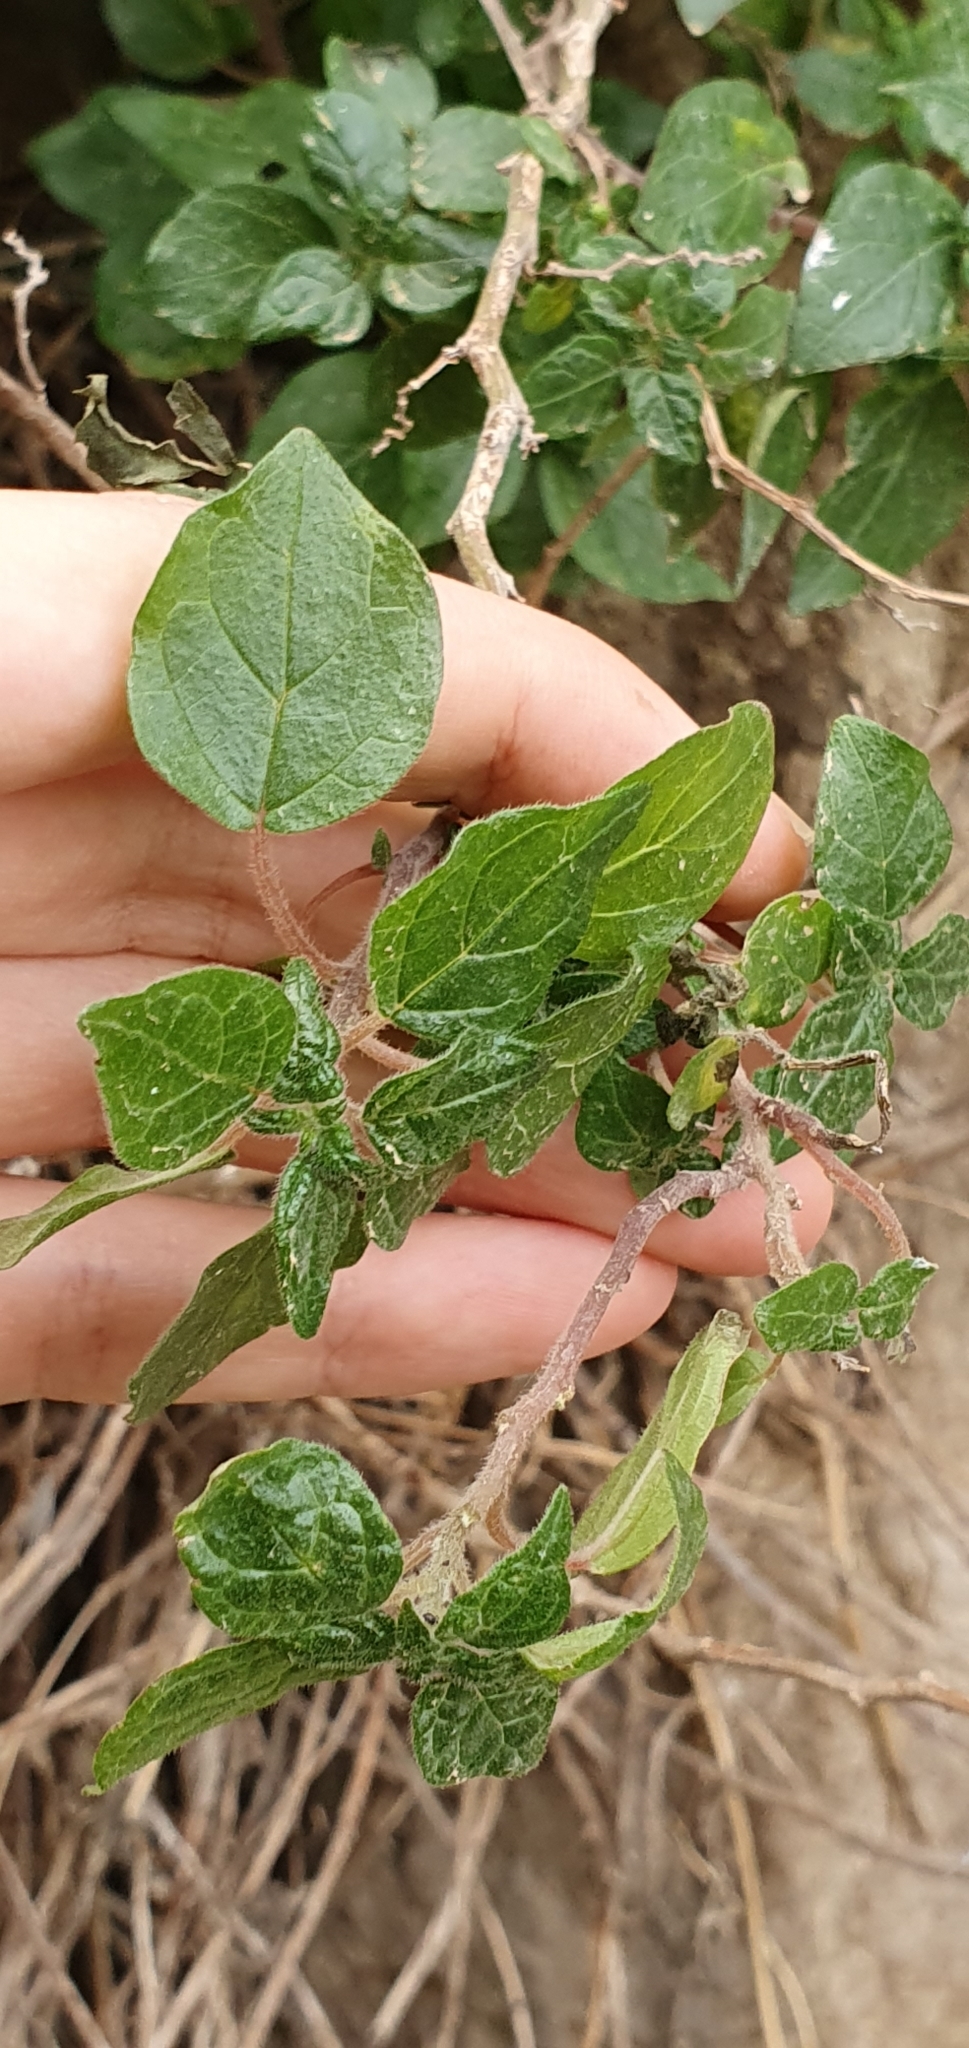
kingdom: Plantae
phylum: Tracheophyta
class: Magnoliopsida
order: Rosales
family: Urticaceae
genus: Parietaria
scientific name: Parietaria judaica
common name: Pellitory-of-the-wall
